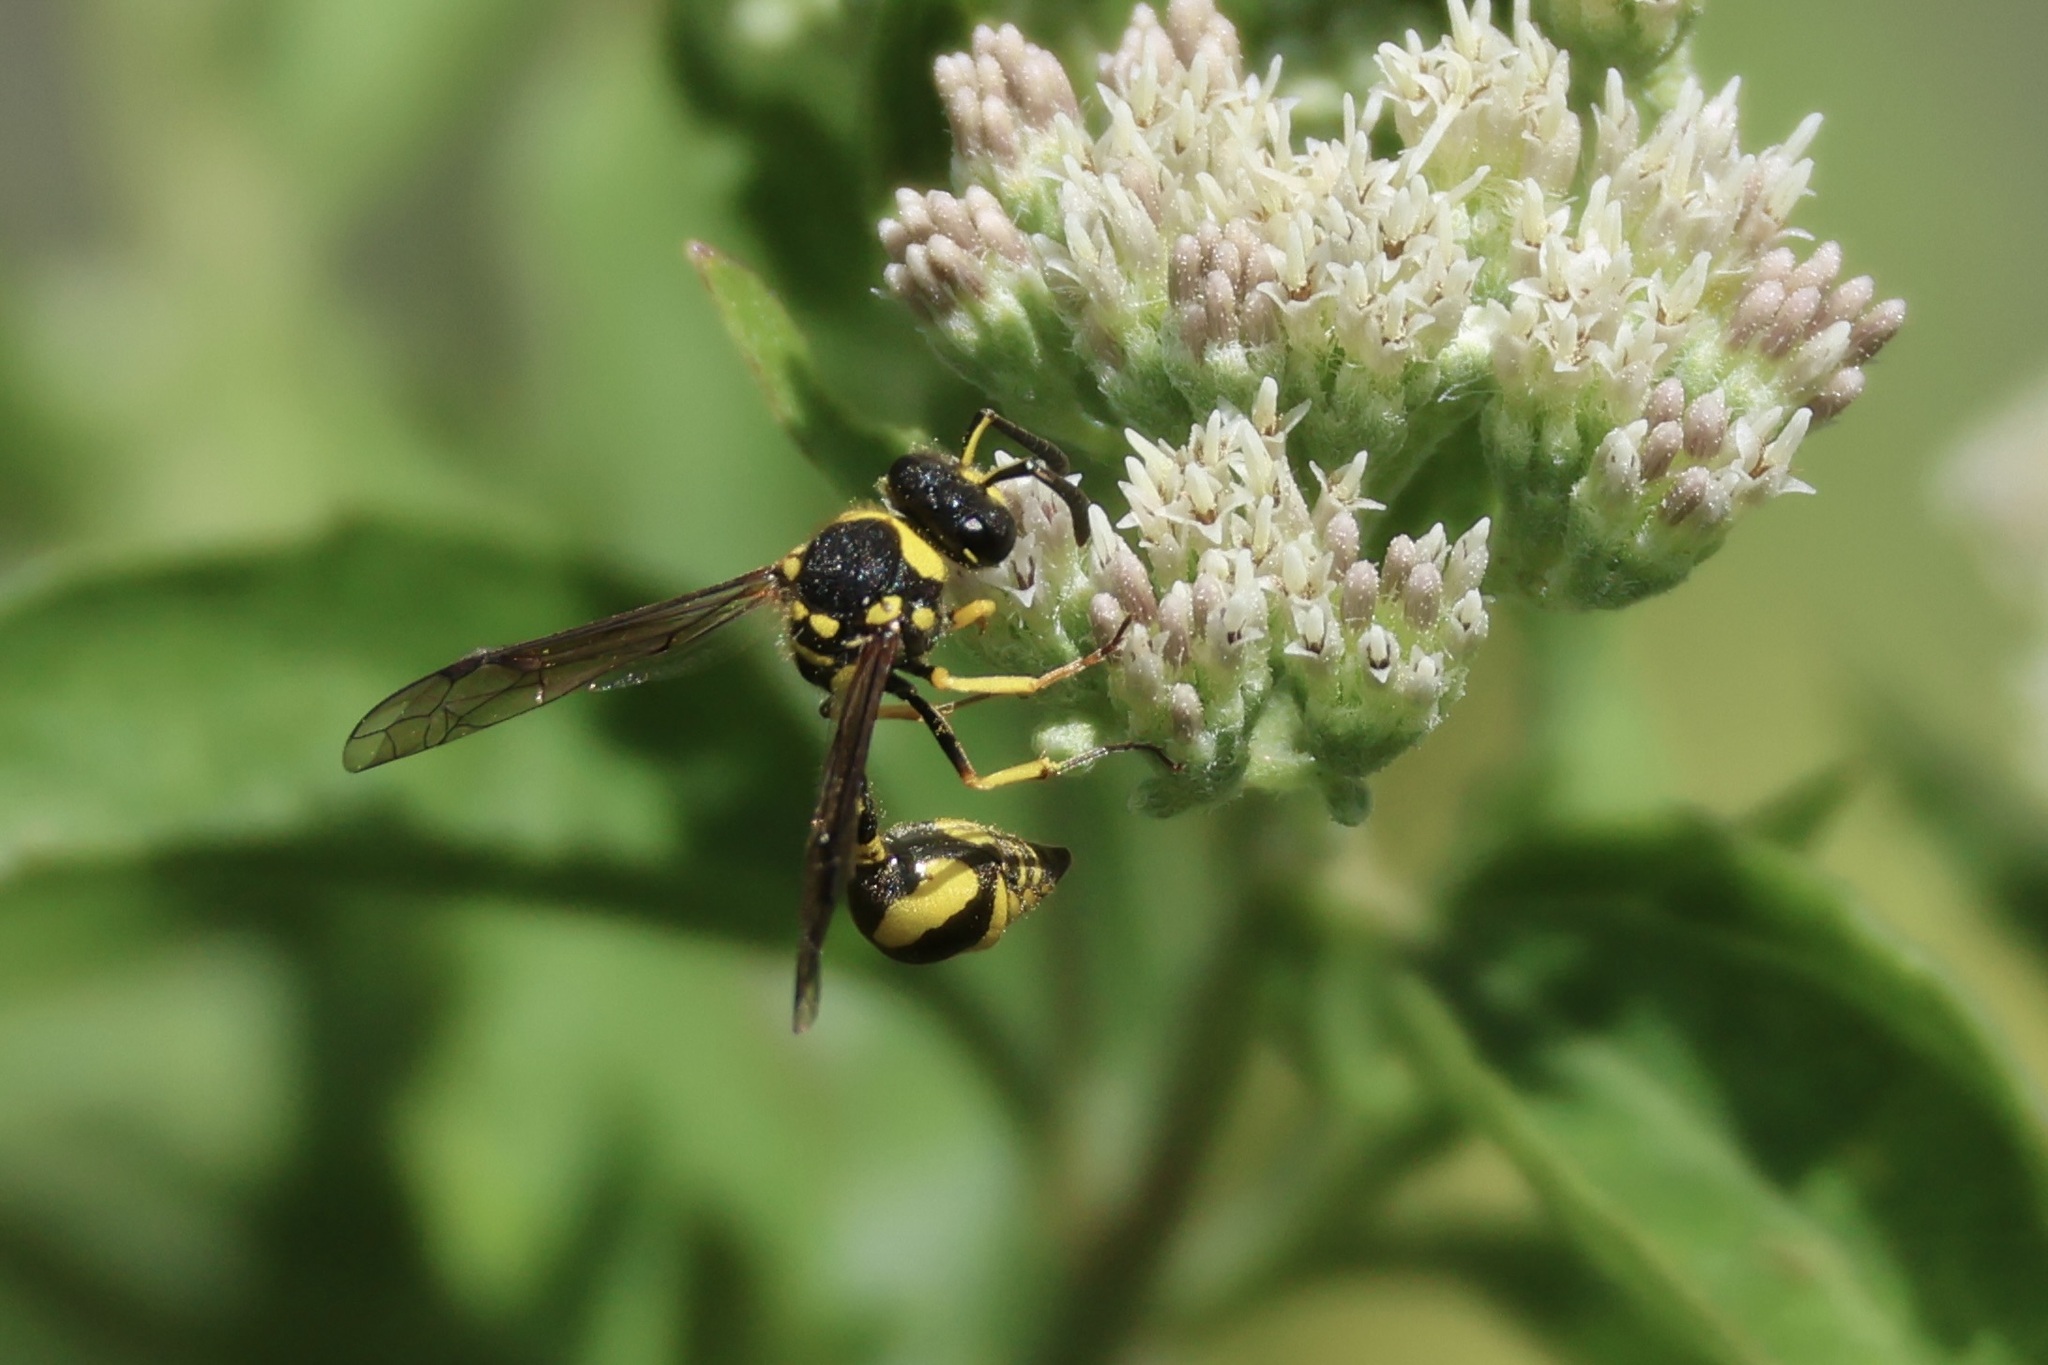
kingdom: Animalia
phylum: Arthropoda
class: Insecta
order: Hymenoptera
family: Vespidae
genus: Eumenes
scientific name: Eumenes mediterraneus
